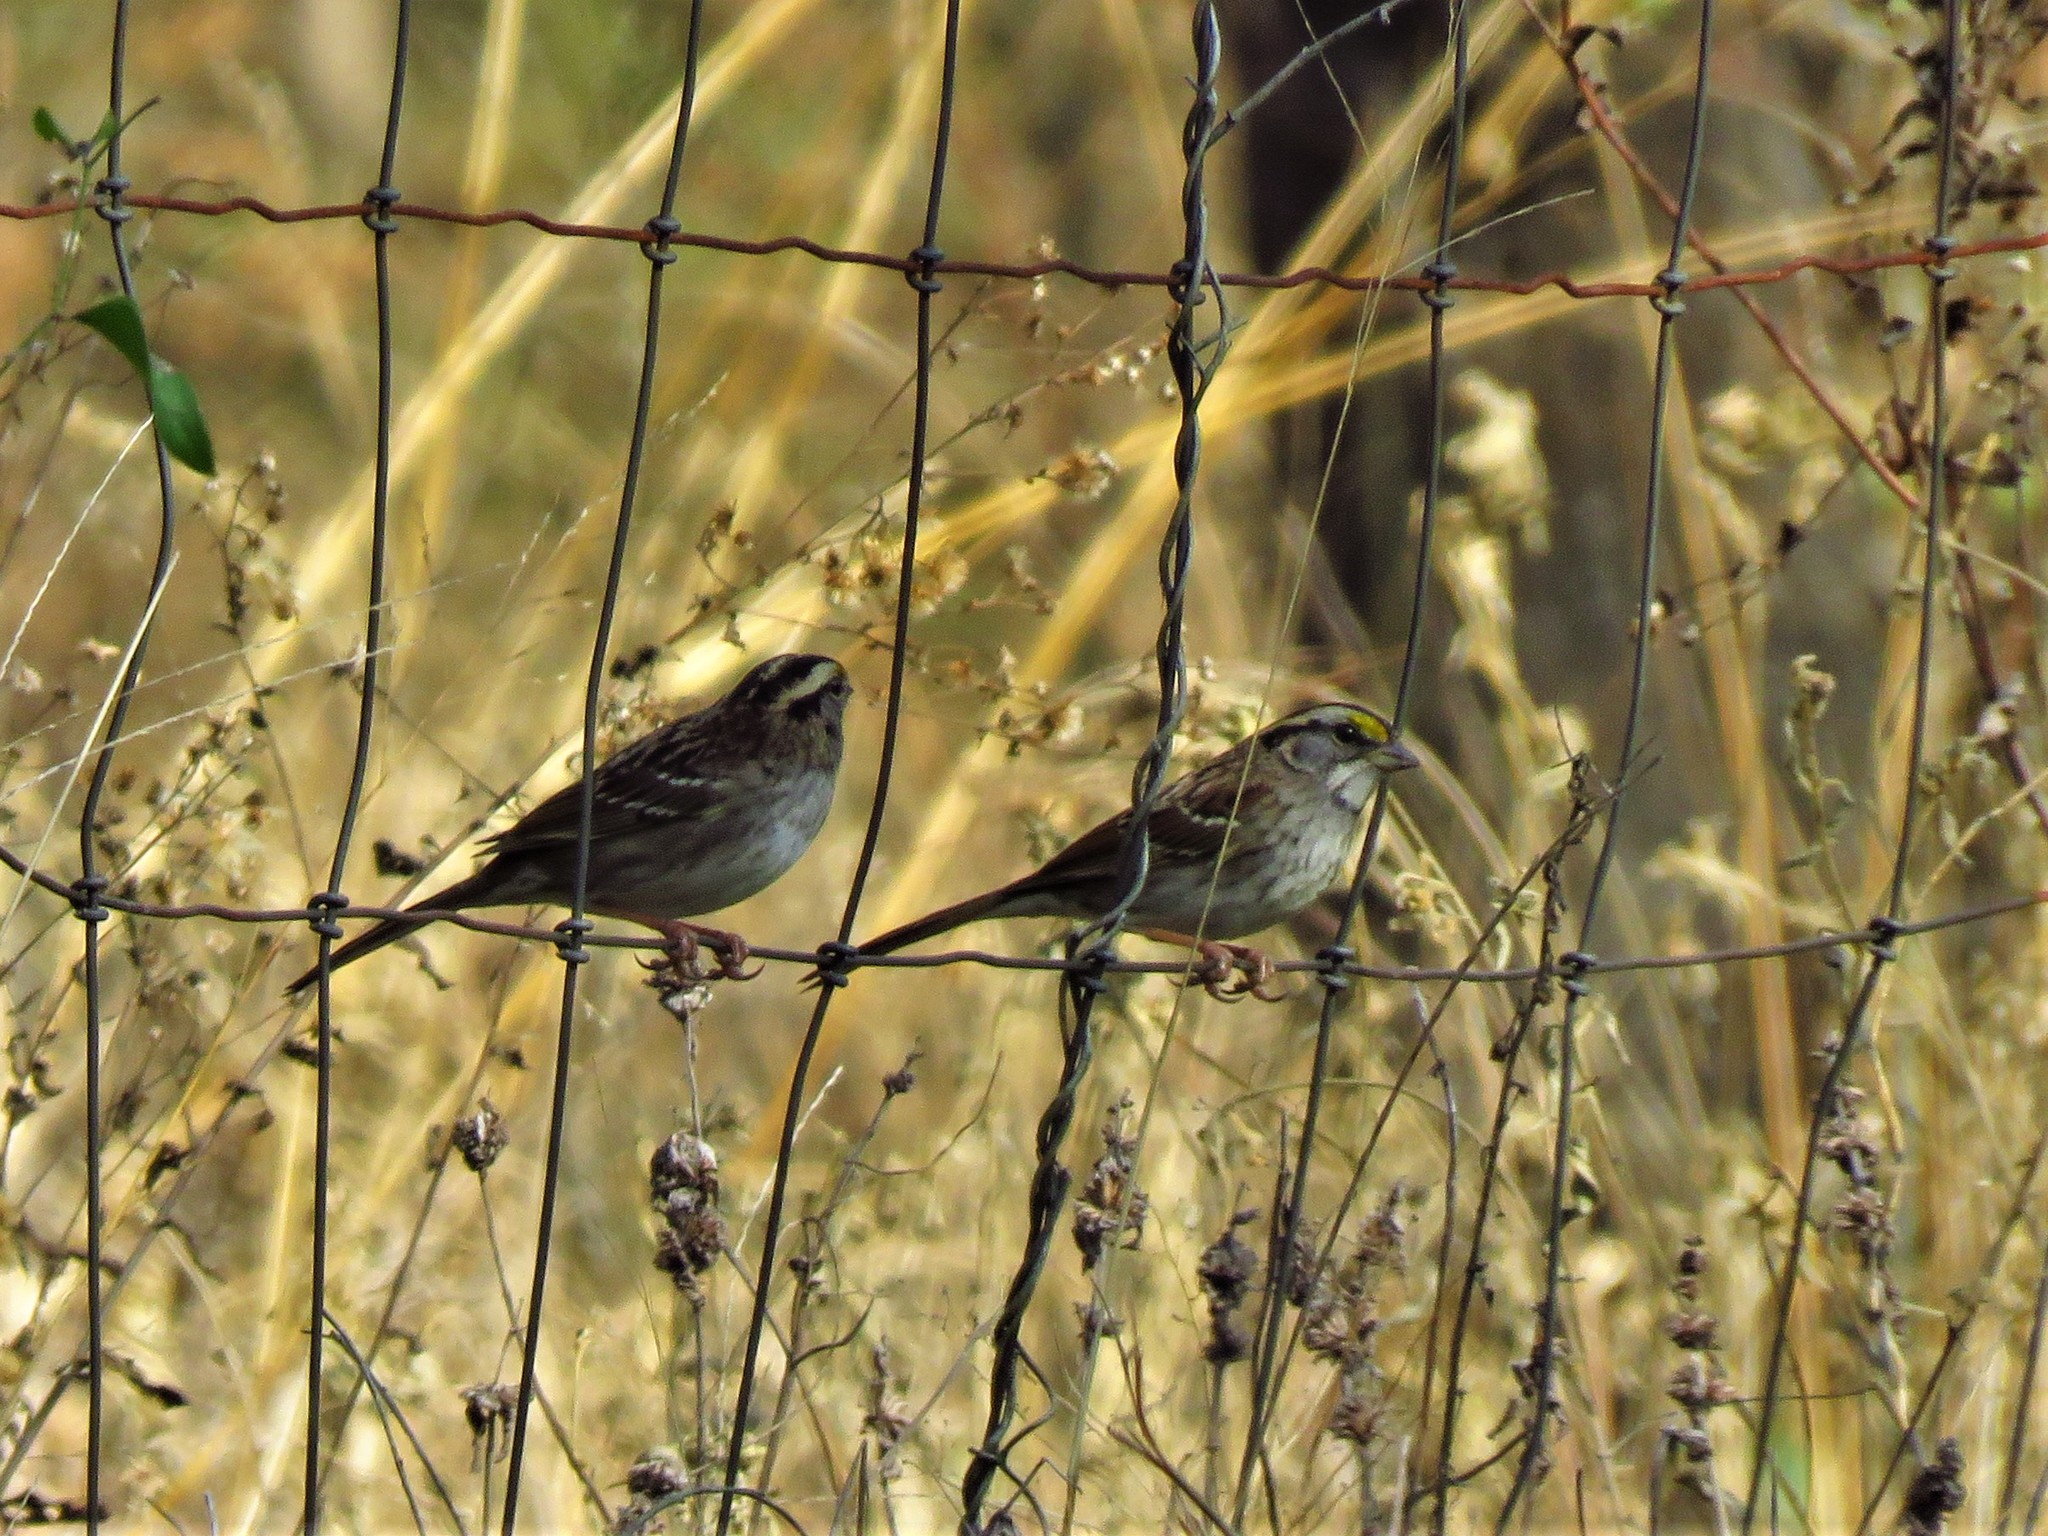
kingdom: Animalia
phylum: Chordata
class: Aves
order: Passeriformes
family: Passerellidae
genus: Zonotrichia
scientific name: Zonotrichia albicollis
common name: White-throated sparrow
